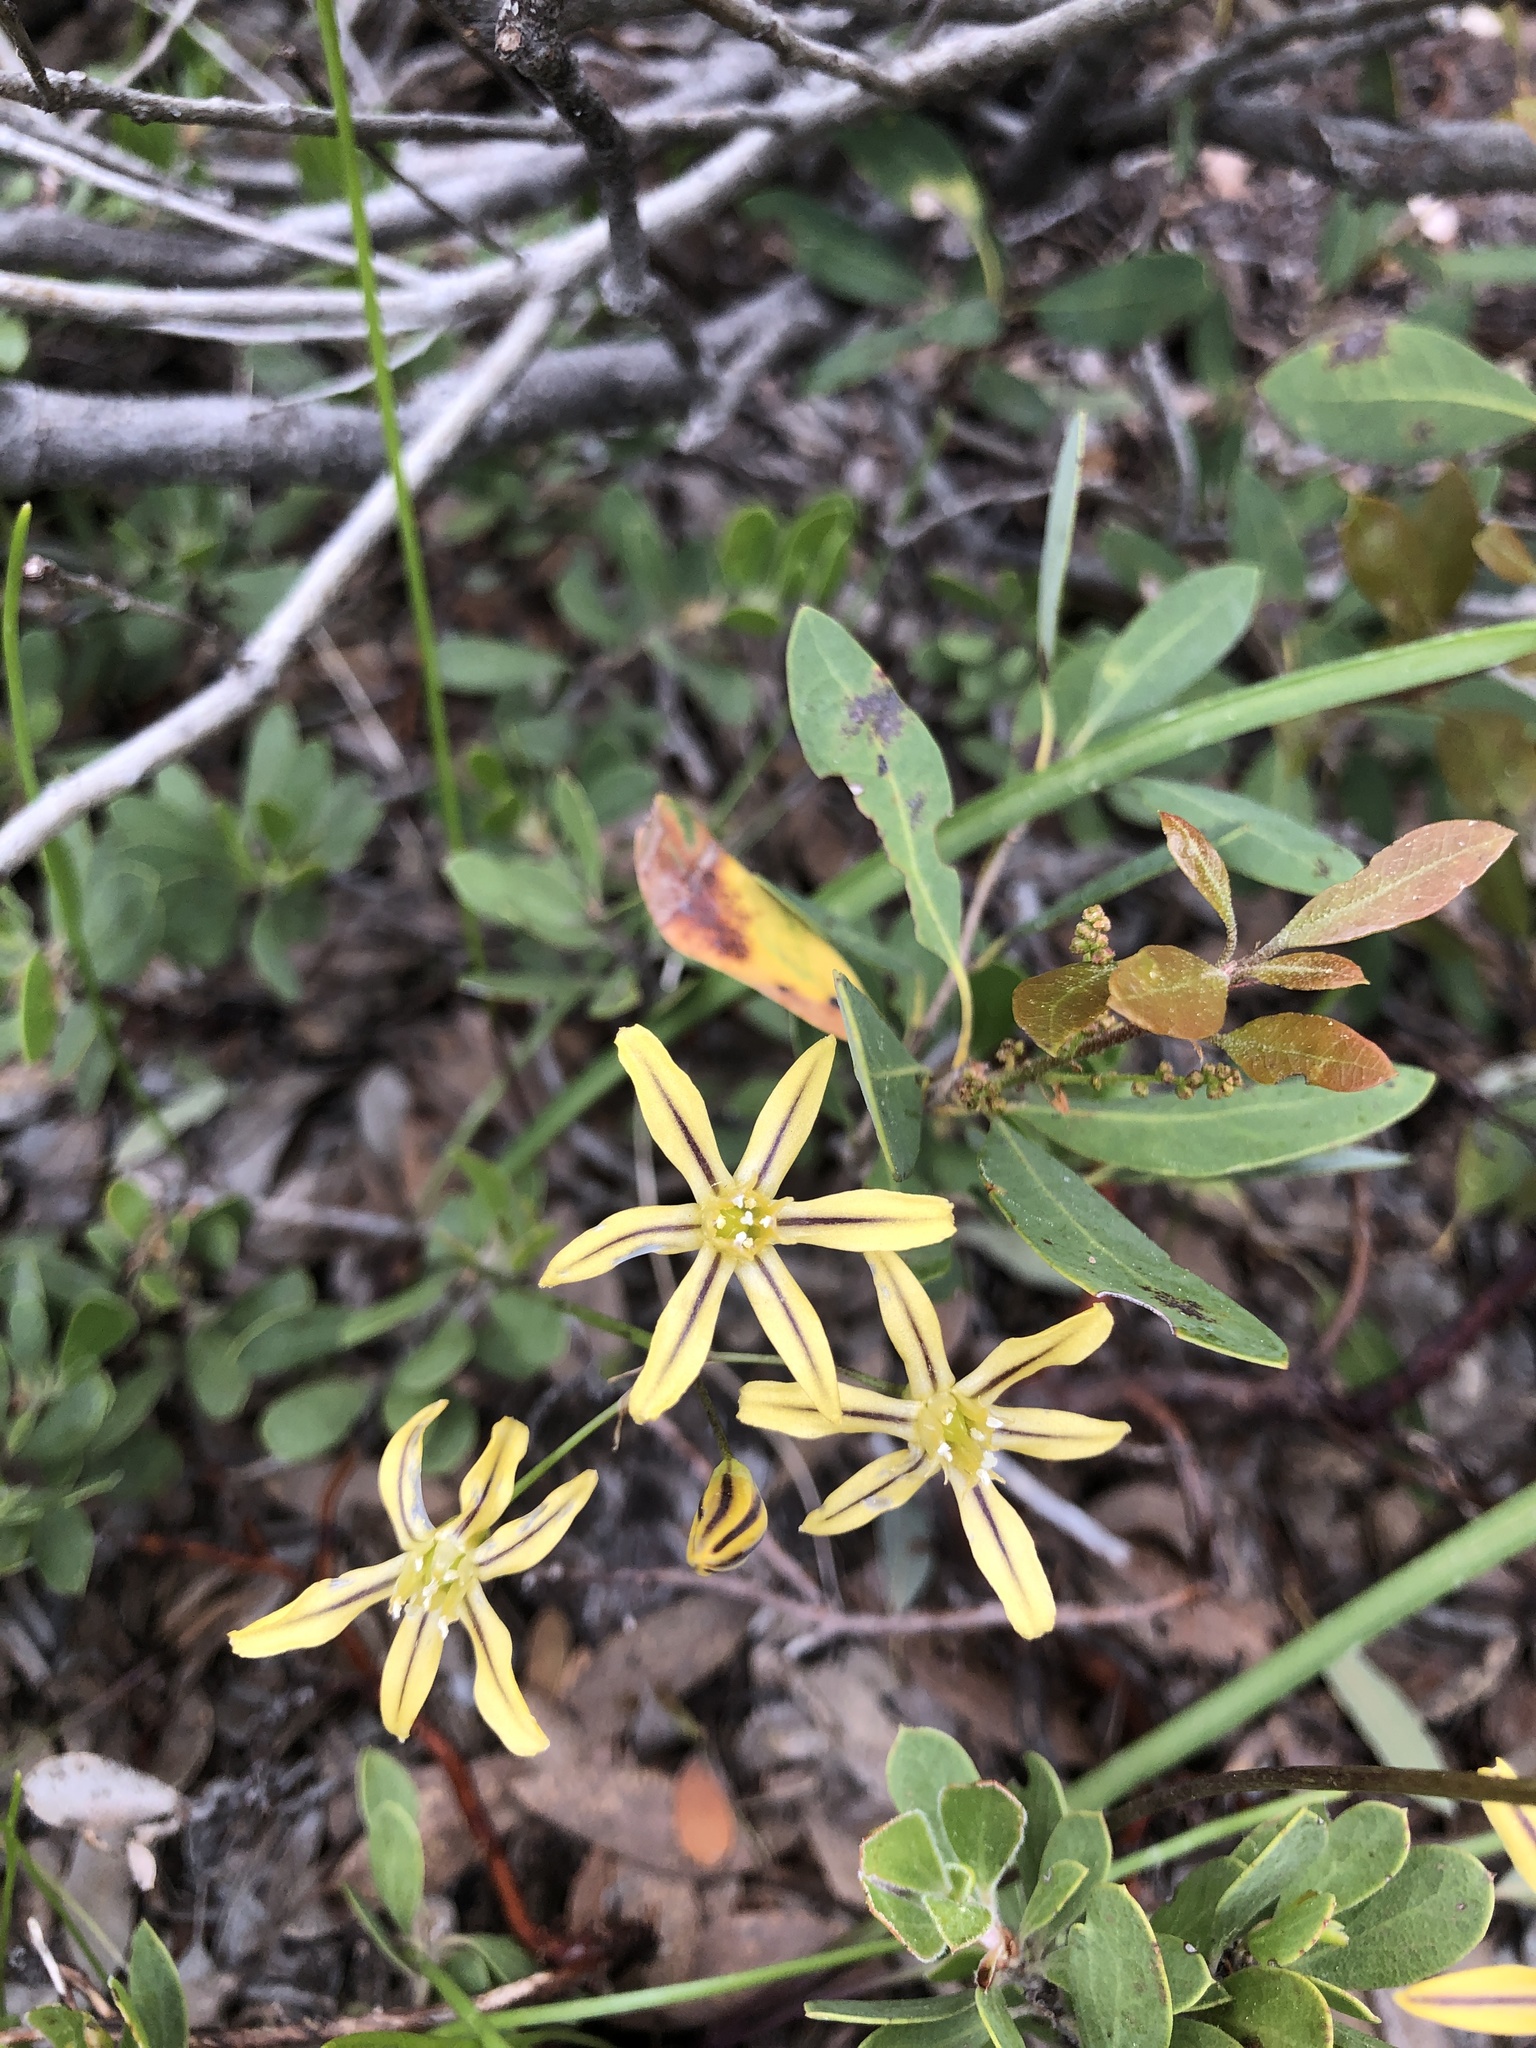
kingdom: Plantae
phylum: Tracheophyta
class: Liliopsida
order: Asparagales
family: Asparagaceae
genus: Triteleia
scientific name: Triteleia ixioides
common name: Yellow-brodiaea
